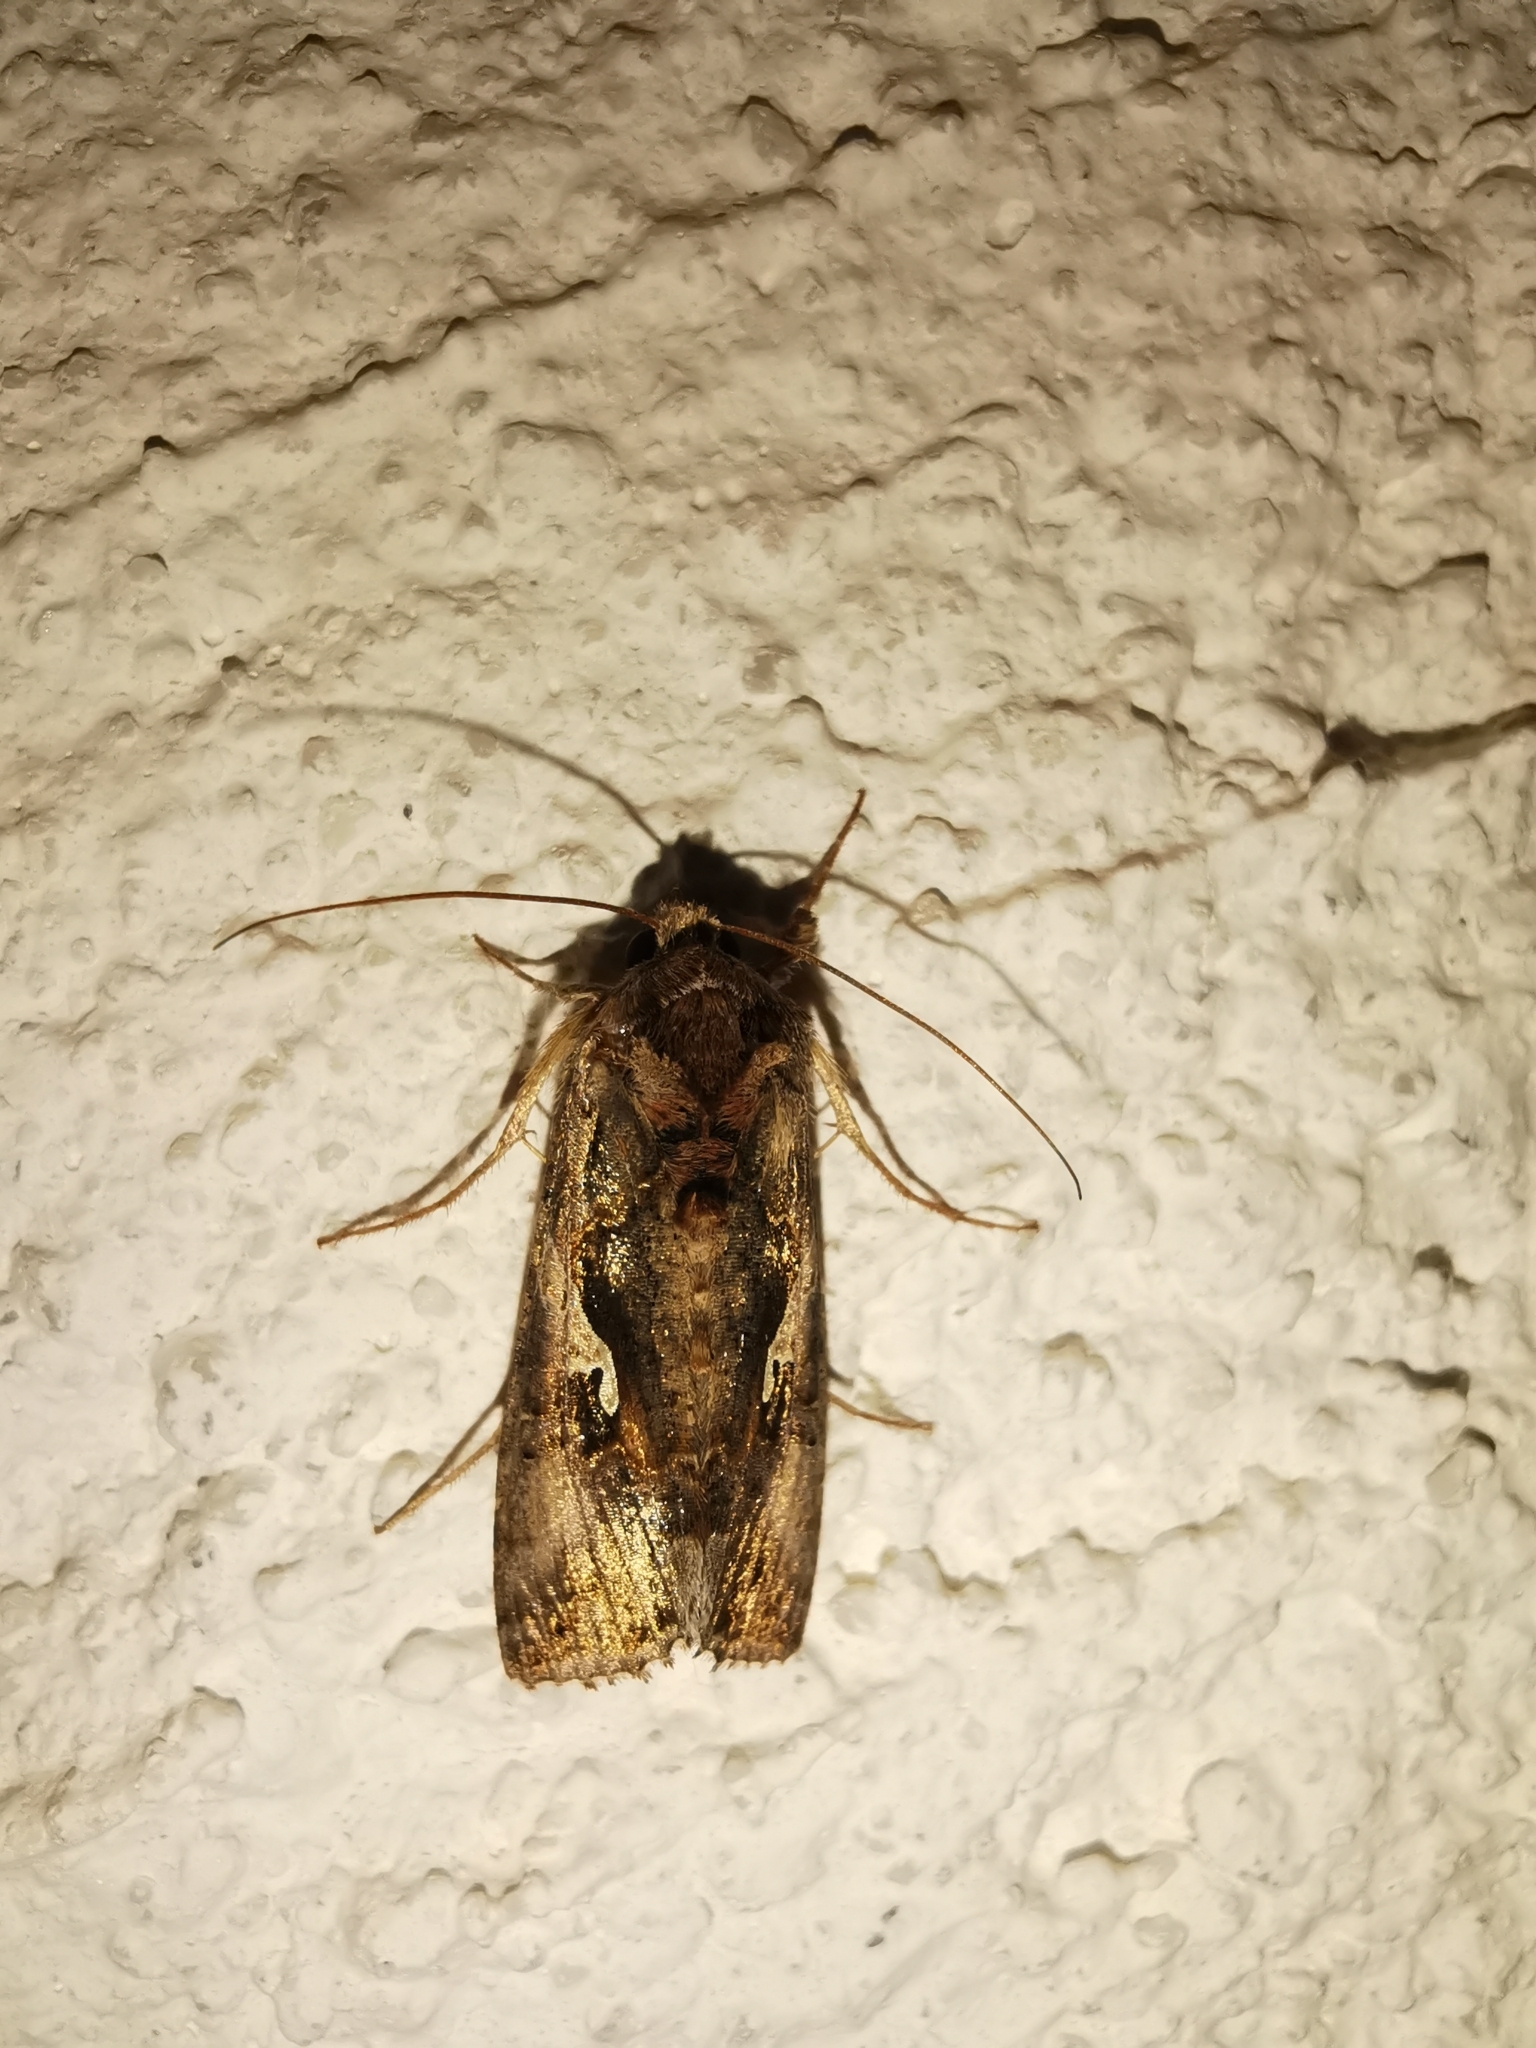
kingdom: Animalia
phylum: Arthropoda
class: Insecta
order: Lepidoptera
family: Noctuidae
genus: Autographa
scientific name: Autographa gamma
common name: Silver y
